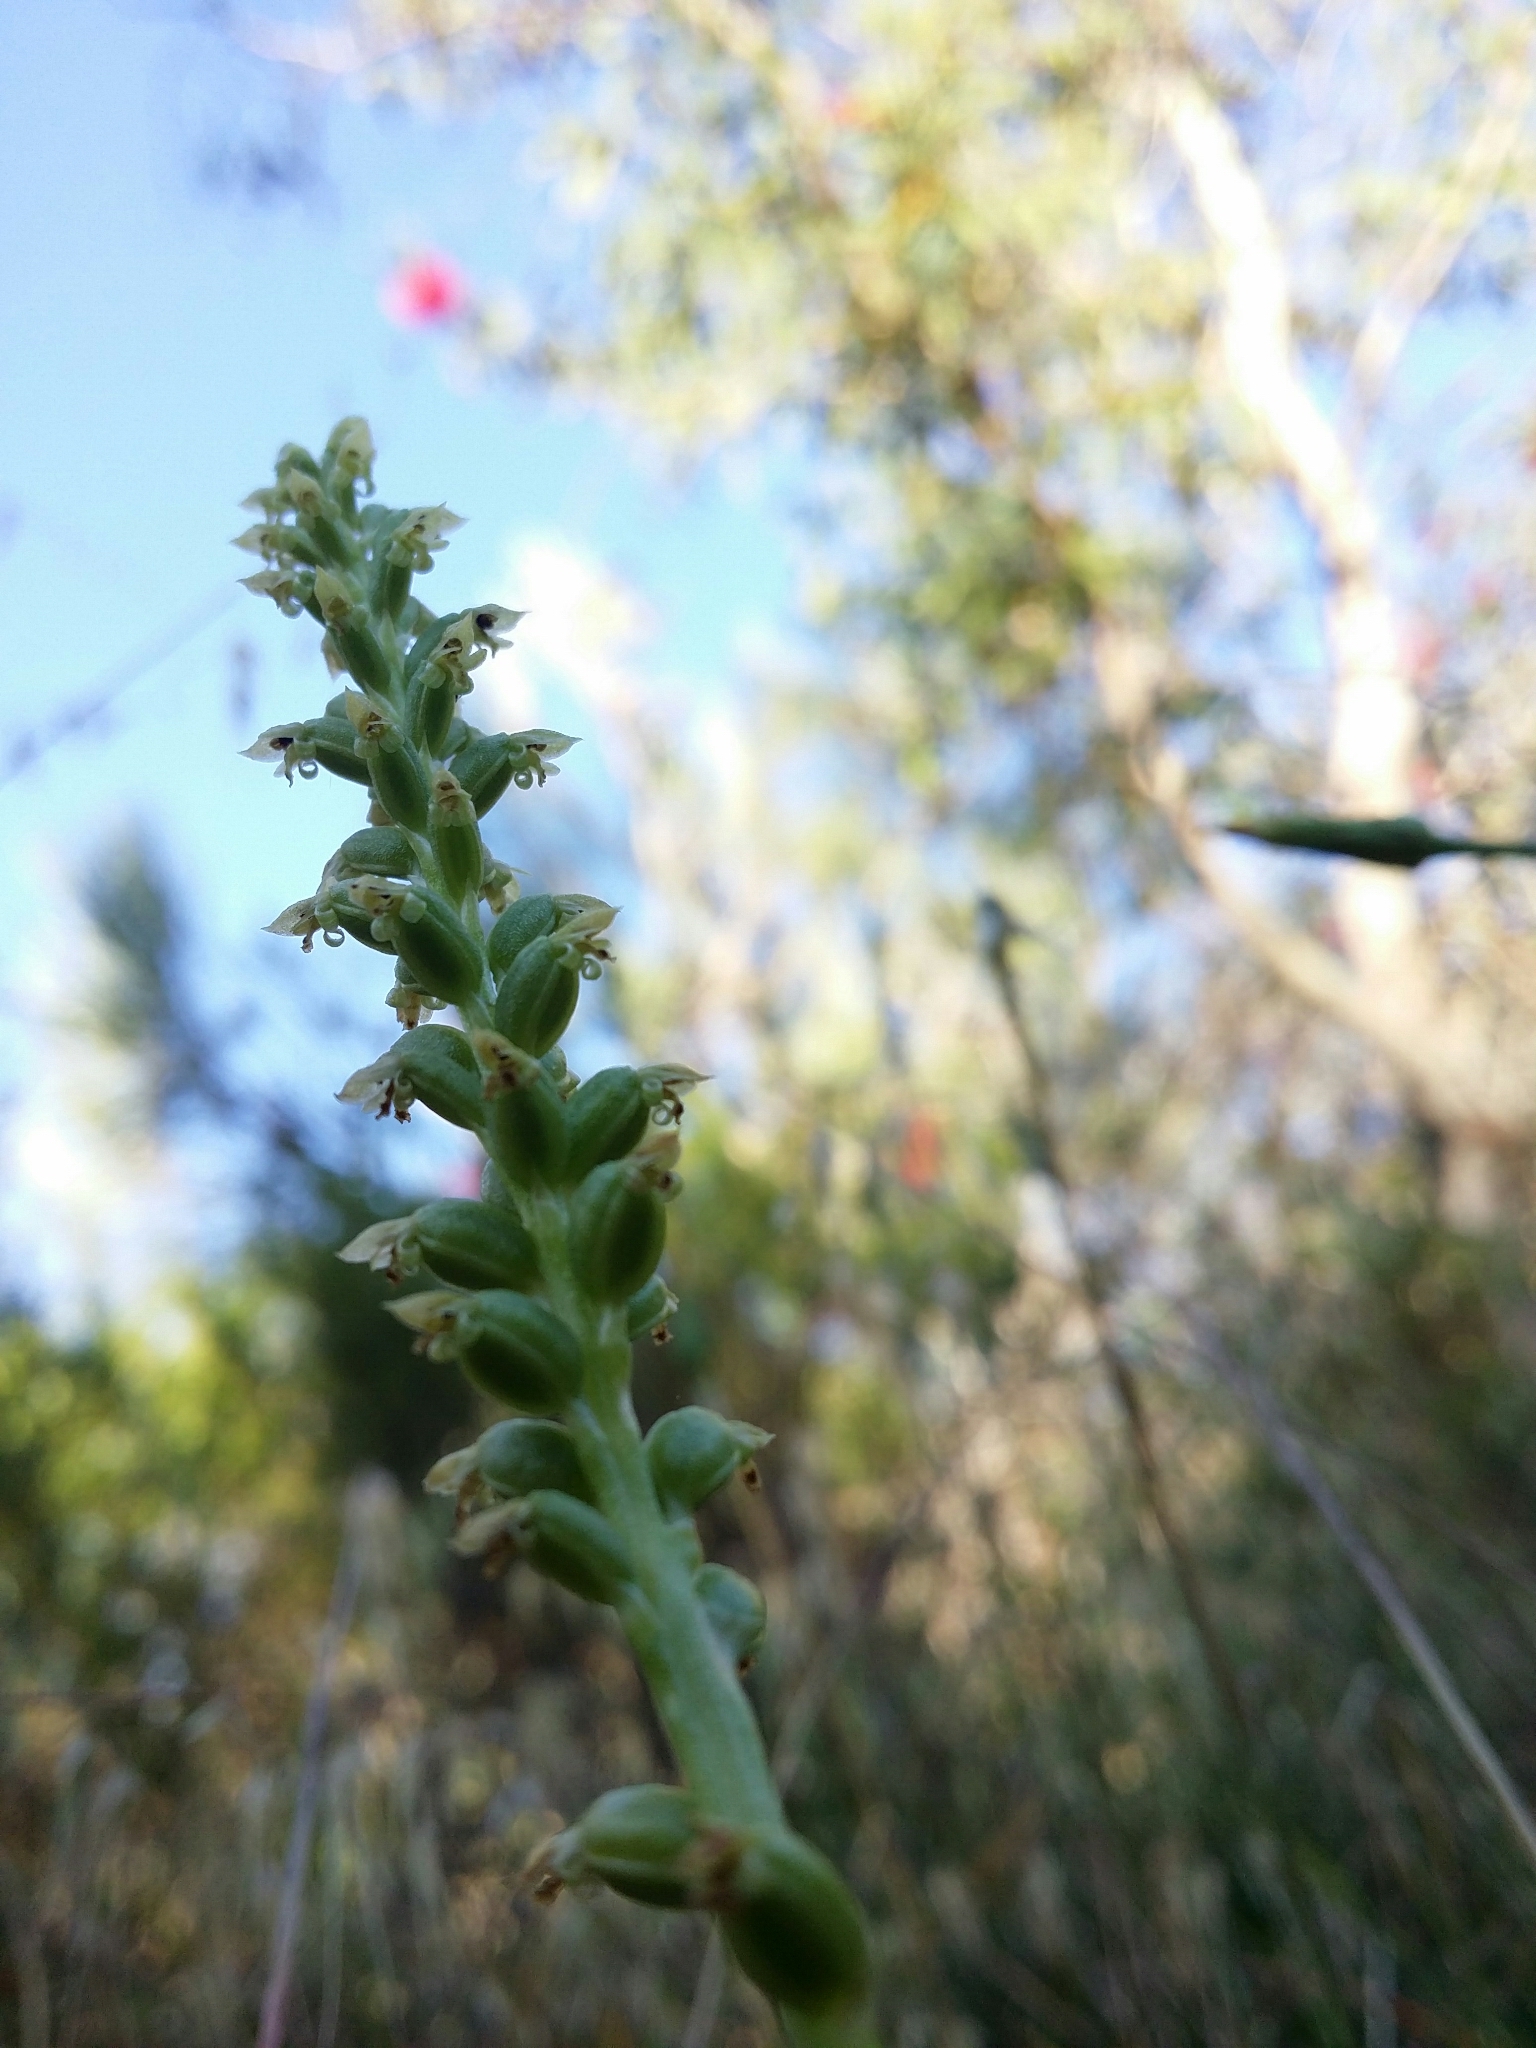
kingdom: Plantae
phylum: Tracheophyta
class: Liliopsida
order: Asparagales
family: Orchidaceae
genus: Microtis
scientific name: Microtis media
